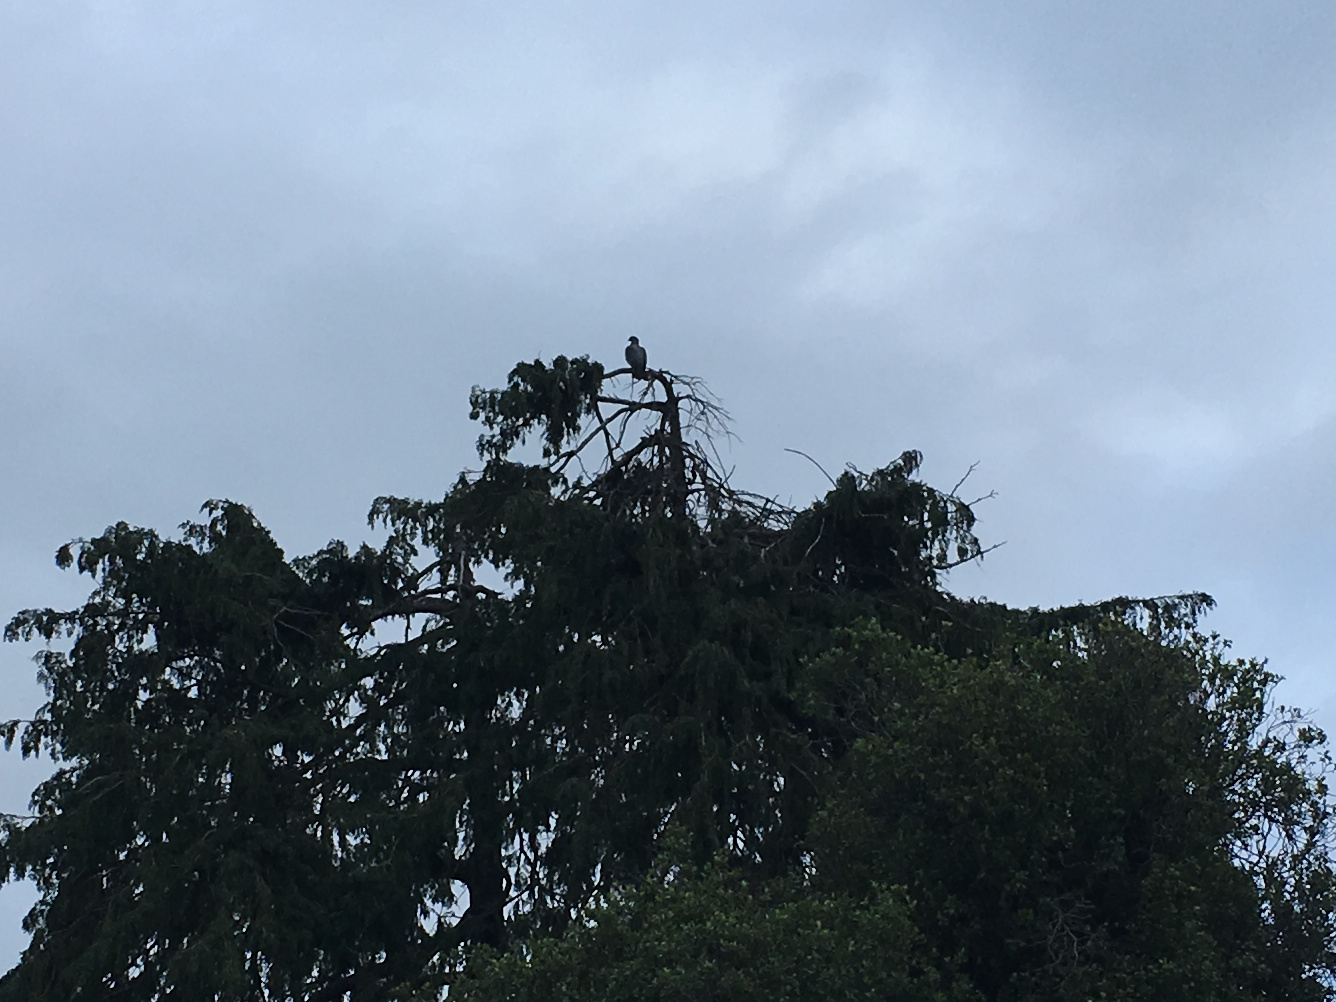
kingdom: Animalia
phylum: Chordata
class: Aves
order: Columbiformes
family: Columbidae
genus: Hemiphaga
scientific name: Hemiphaga novaeseelandiae
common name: New zealand pigeon
